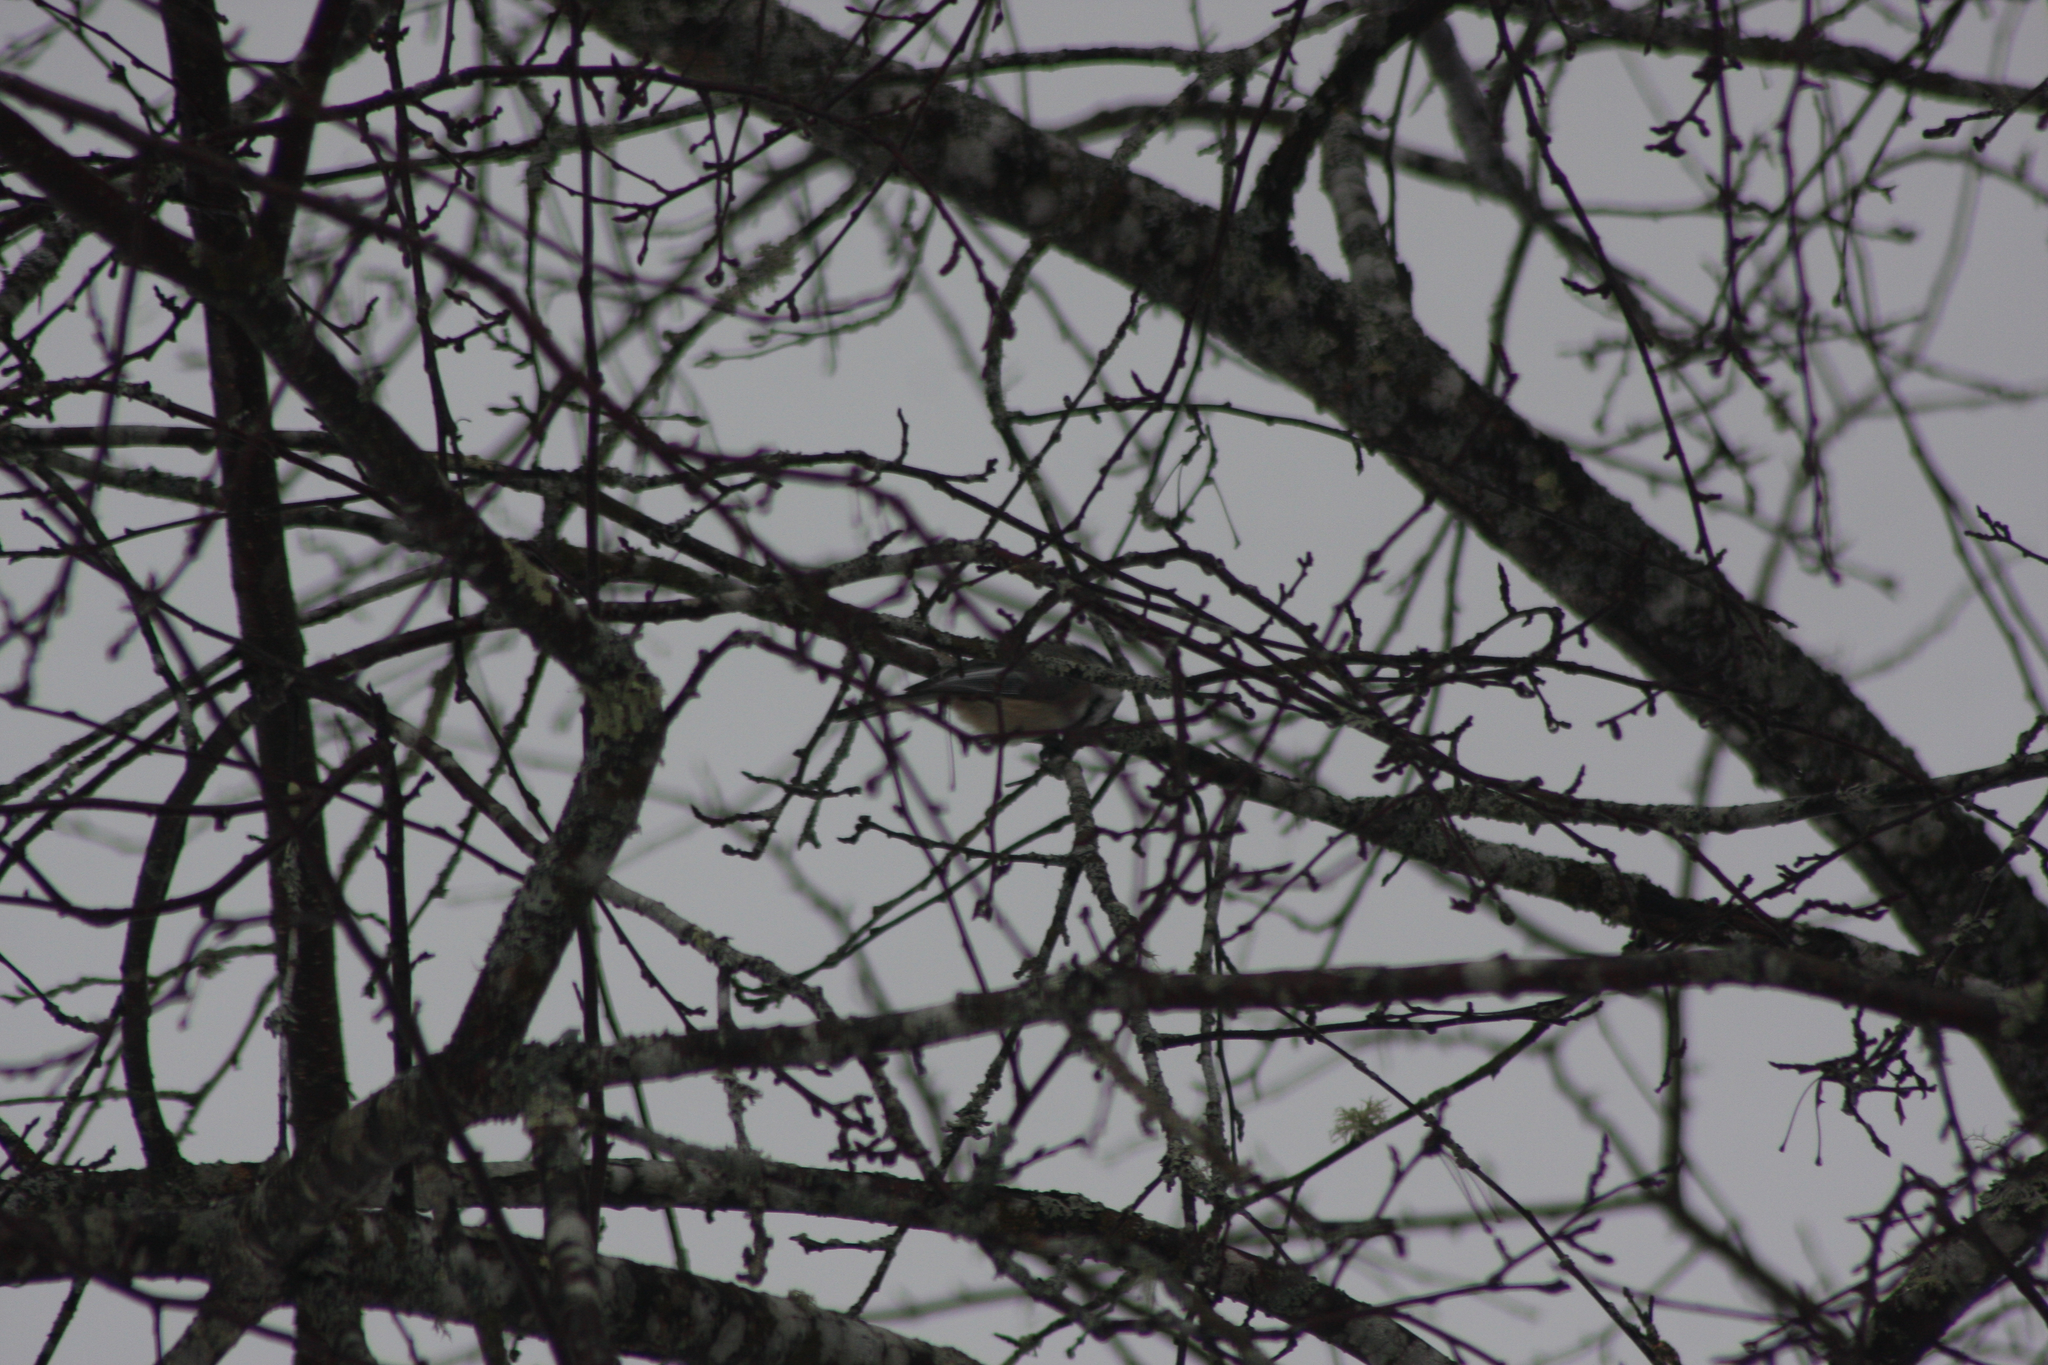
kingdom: Animalia
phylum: Chordata
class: Aves
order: Passeriformes
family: Paridae
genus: Poecile
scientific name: Poecile atricapillus
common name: Black-capped chickadee
